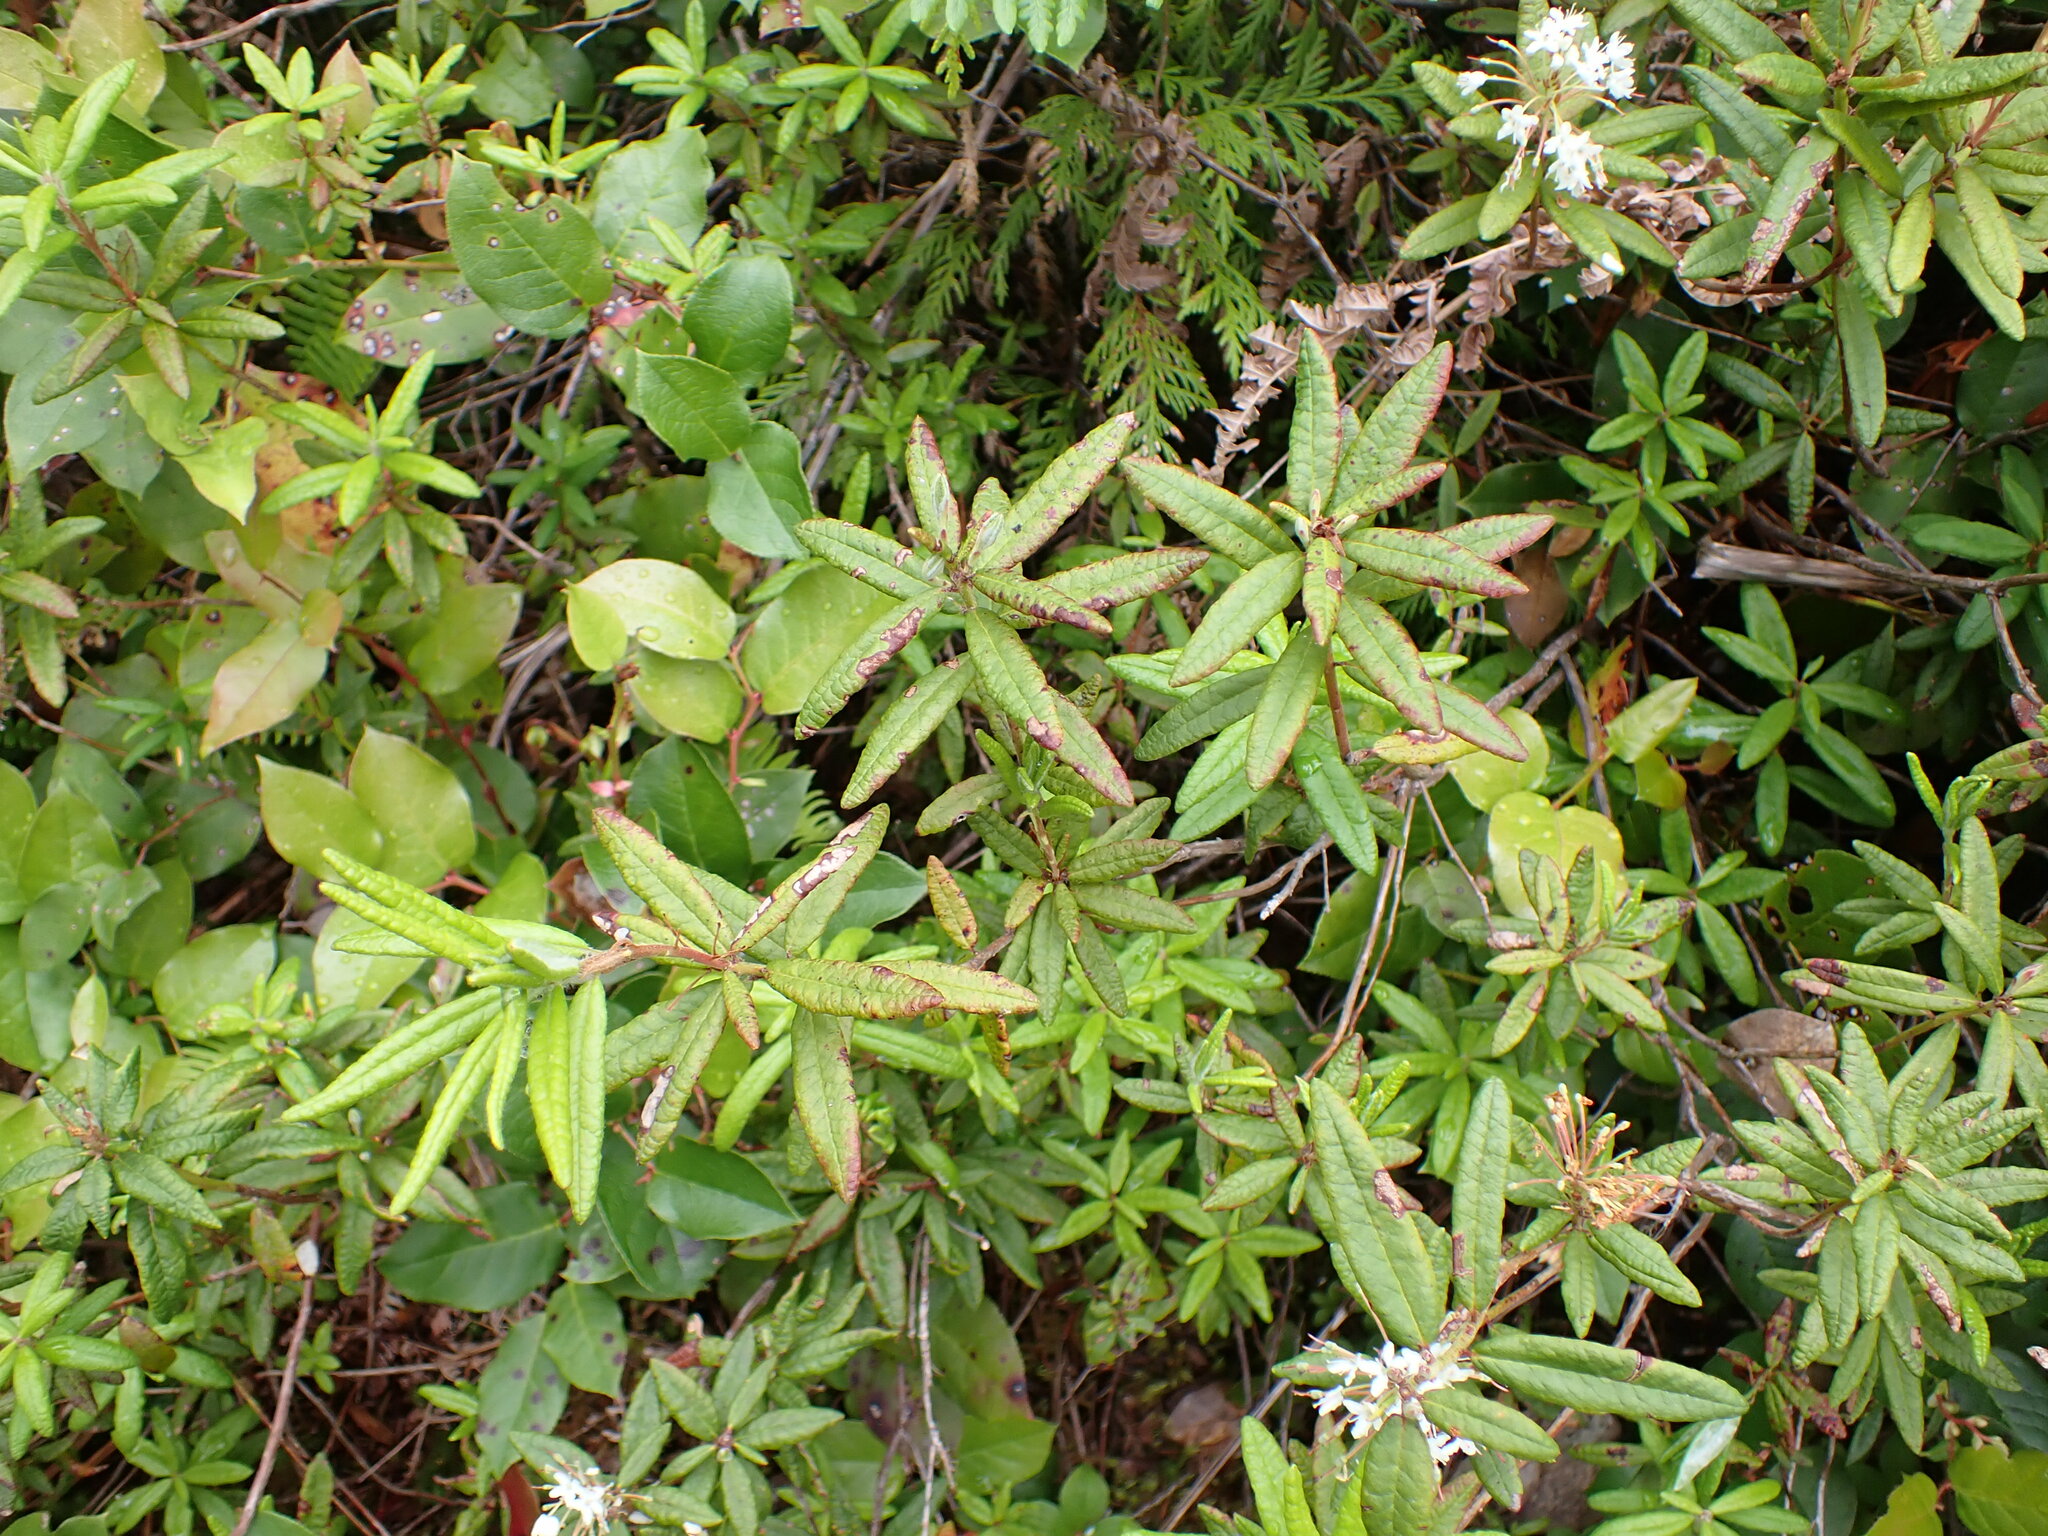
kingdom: Plantae
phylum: Tracheophyta
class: Magnoliopsida
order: Ericales
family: Ericaceae
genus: Rhododendron
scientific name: Rhododendron groenlandicum
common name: Bog labrador tea
